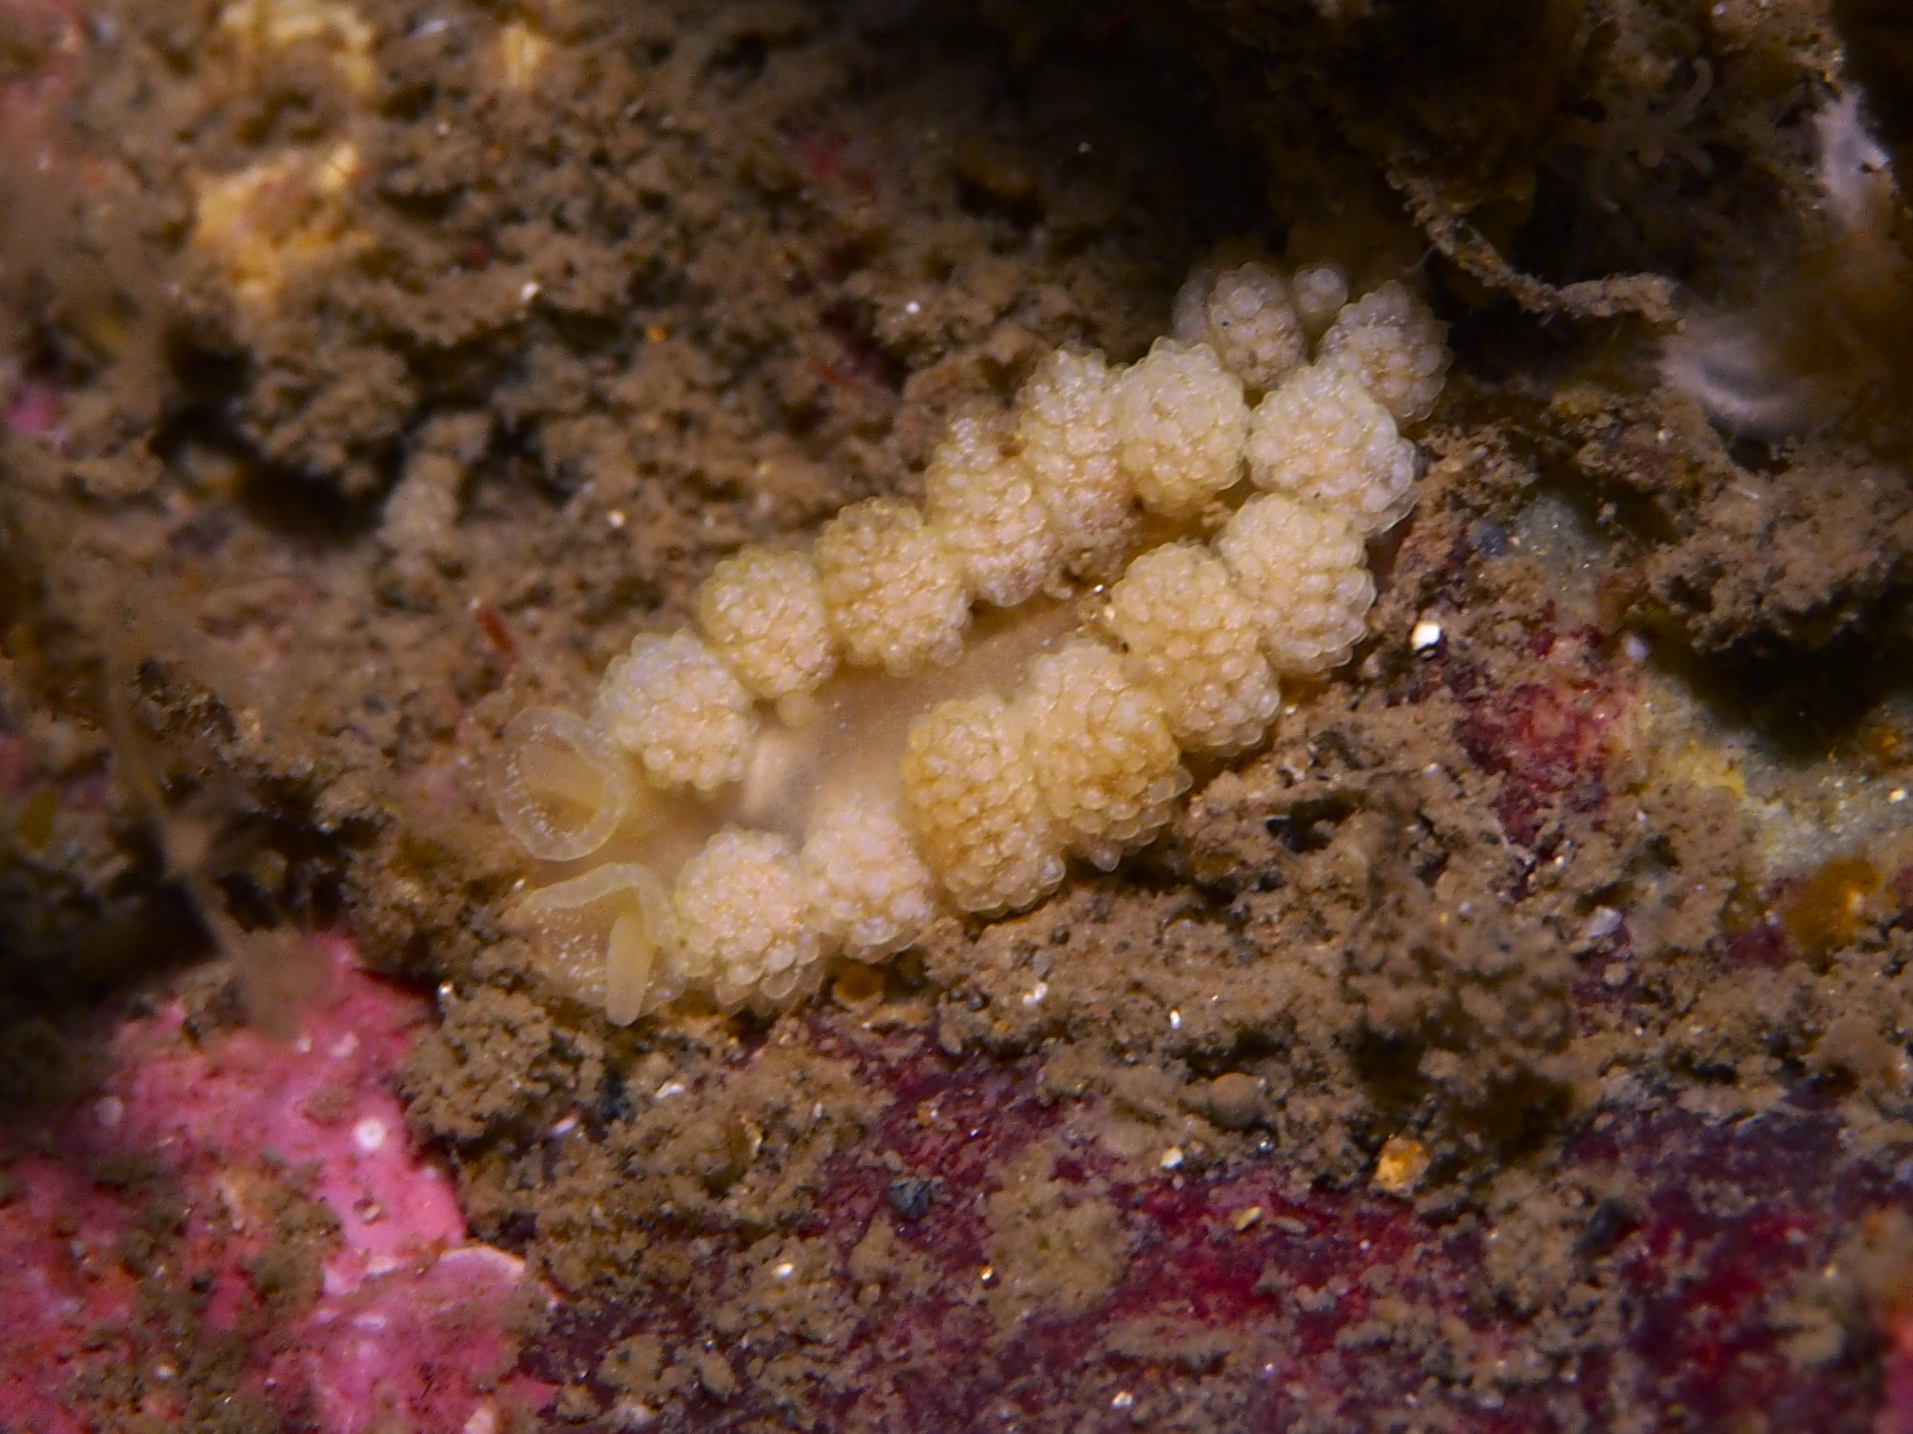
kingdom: Animalia
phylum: Mollusca
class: Gastropoda
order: Nudibranchia
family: Dotidae
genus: Doto
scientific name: Doto fragilis
